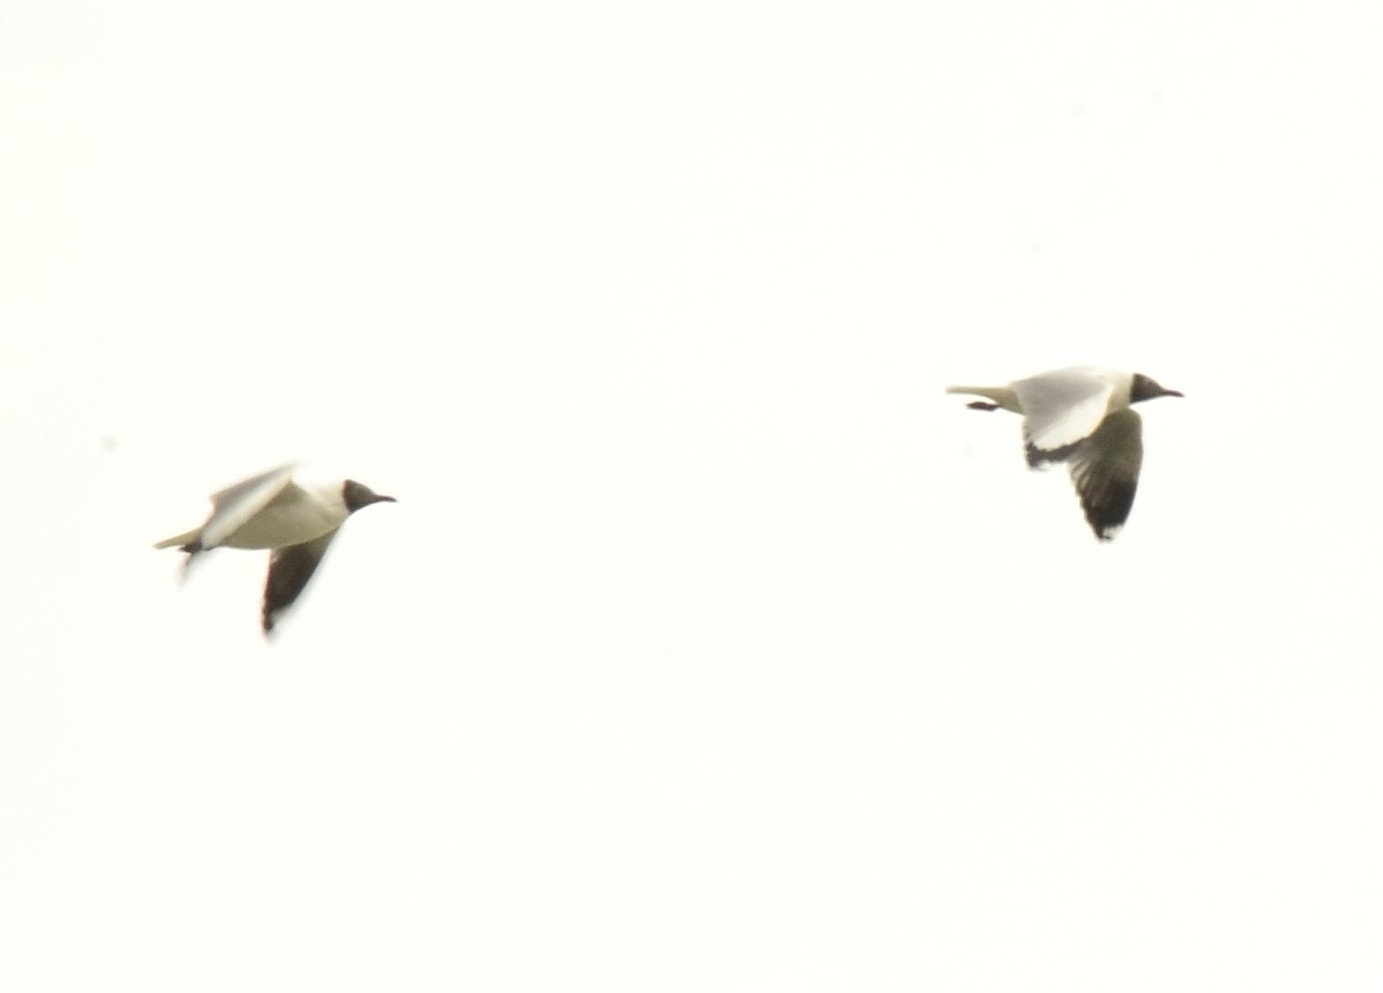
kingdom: Animalia
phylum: Chordata
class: Aves
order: Charadriiformes
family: Laridae
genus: Chroicocephalus
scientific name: Chroicocephalus brunnicephalus
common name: Brown-headed gull
